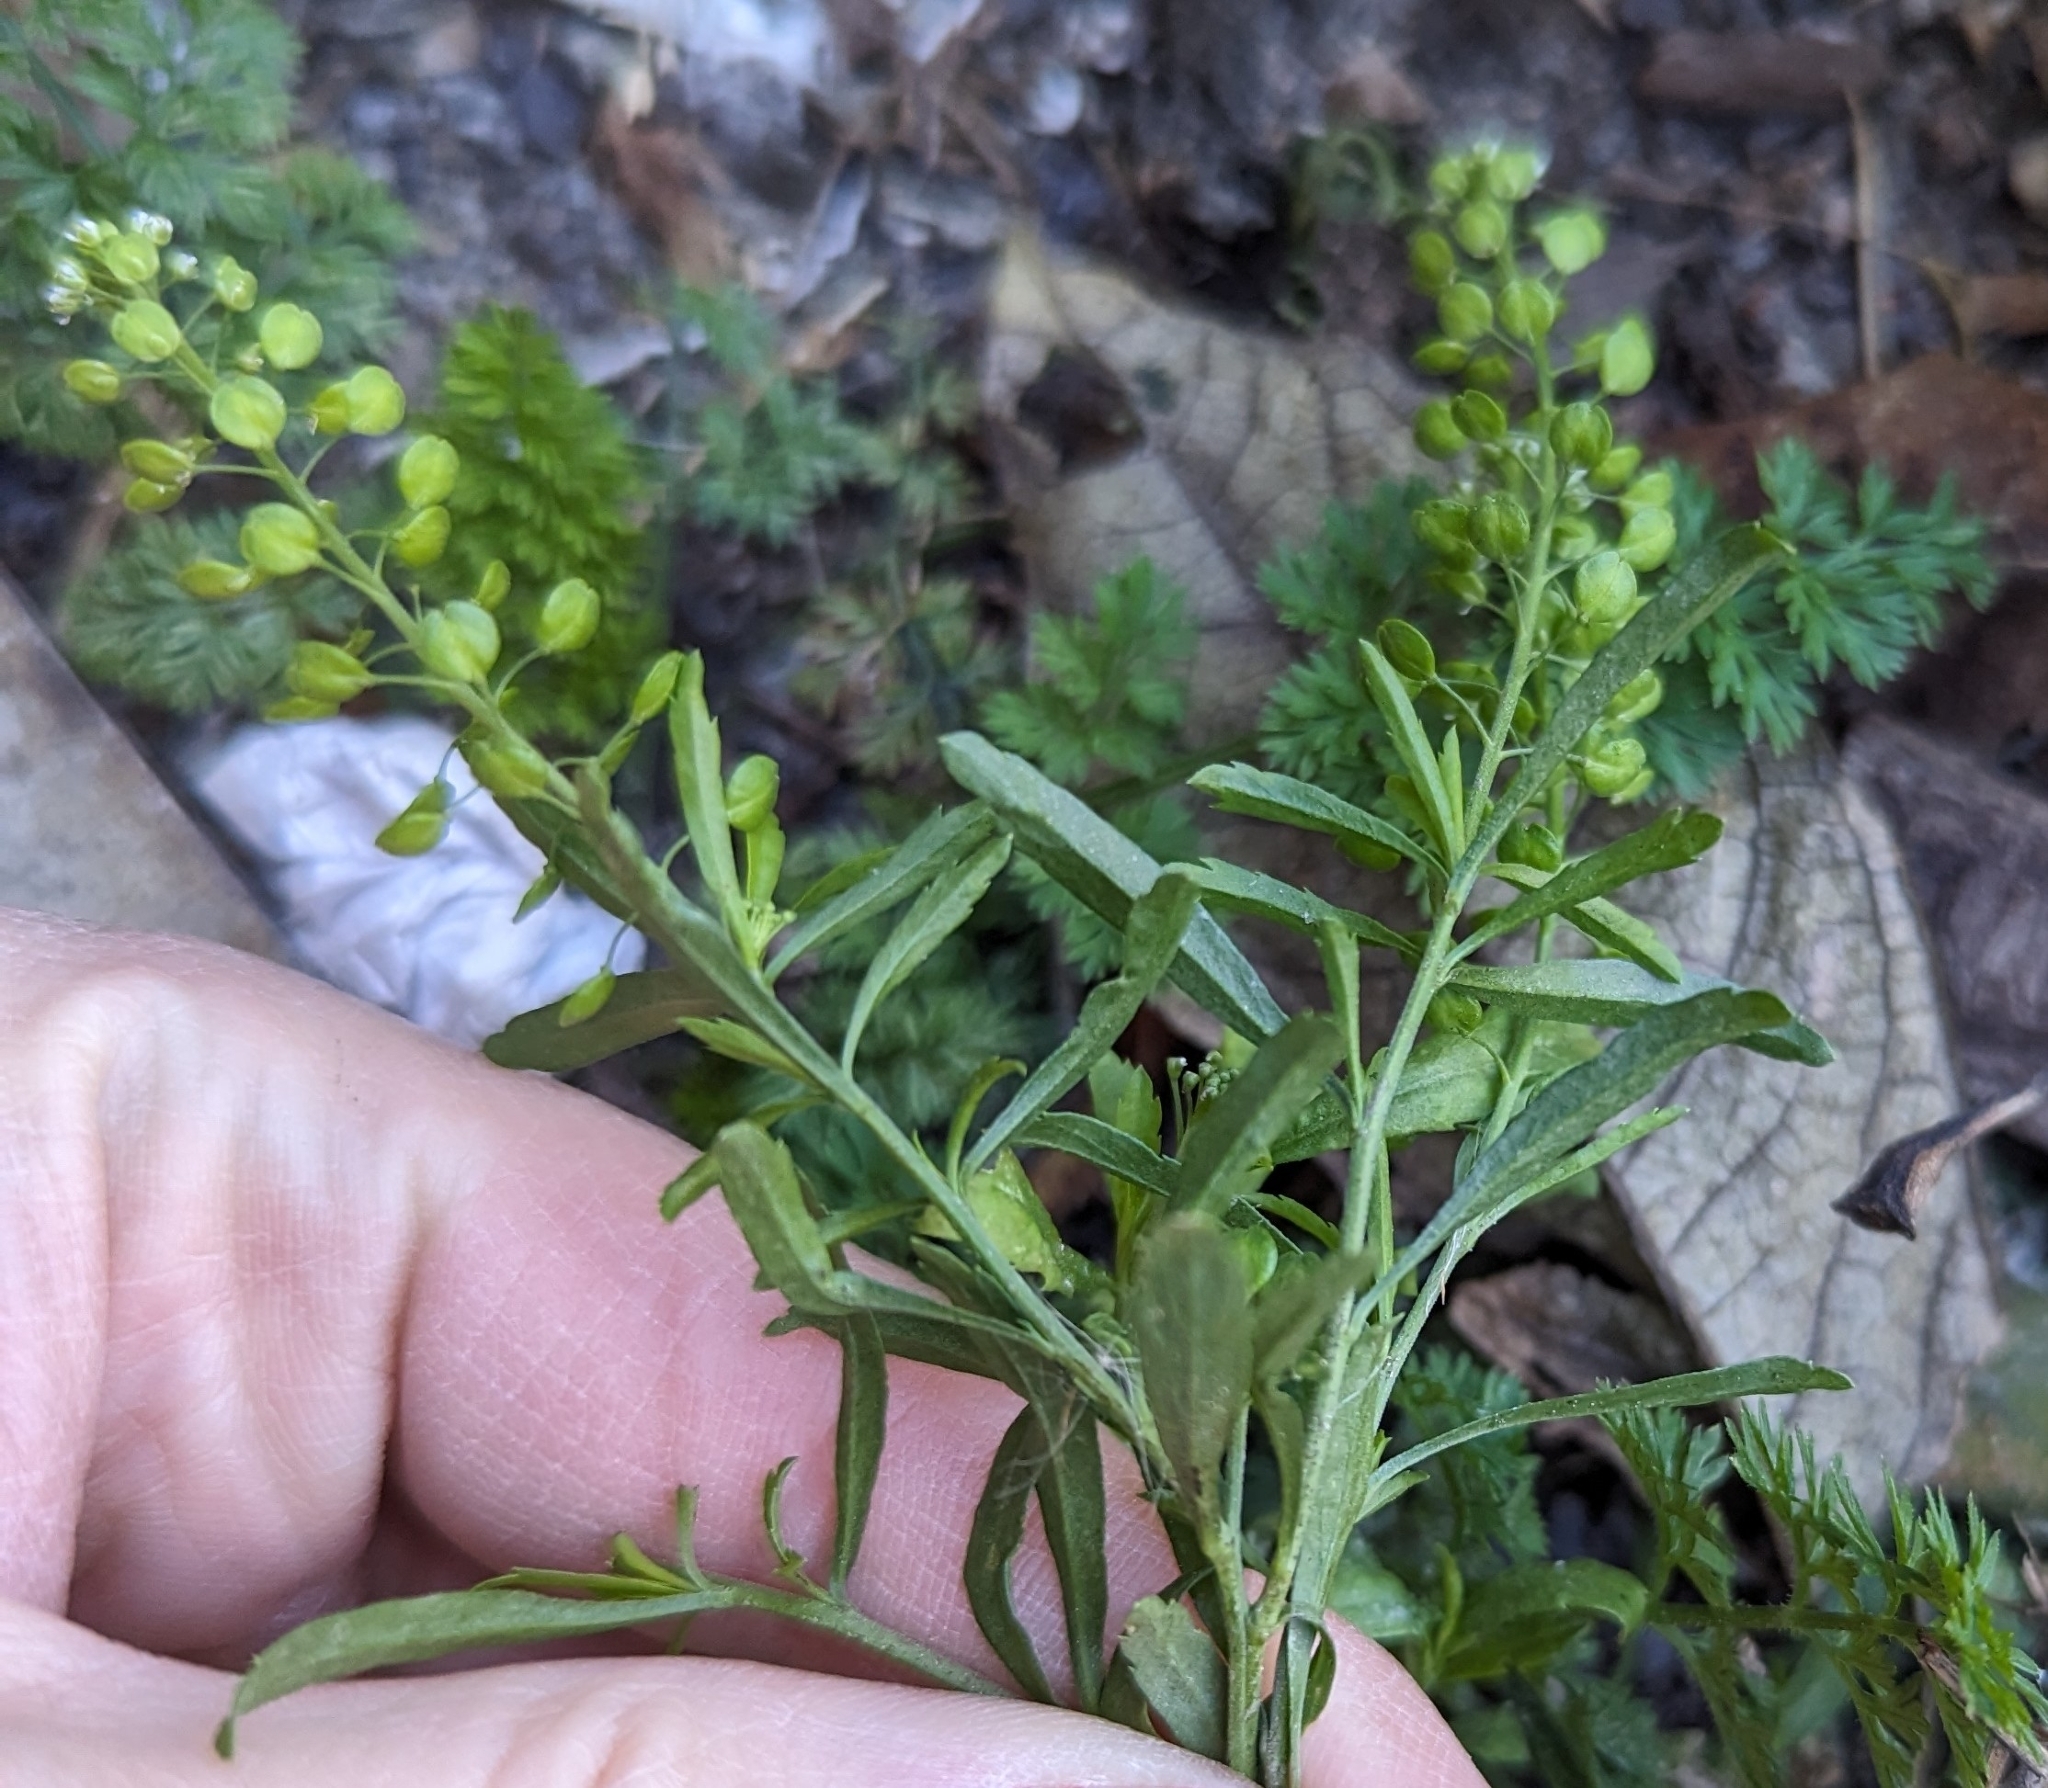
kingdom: Plantae
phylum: Tracheophyta
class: Magnoliopsida
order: Brassicales
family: Brassicaceae
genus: Lepidium
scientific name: Lepidium virginicum
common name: Least pepperwort
